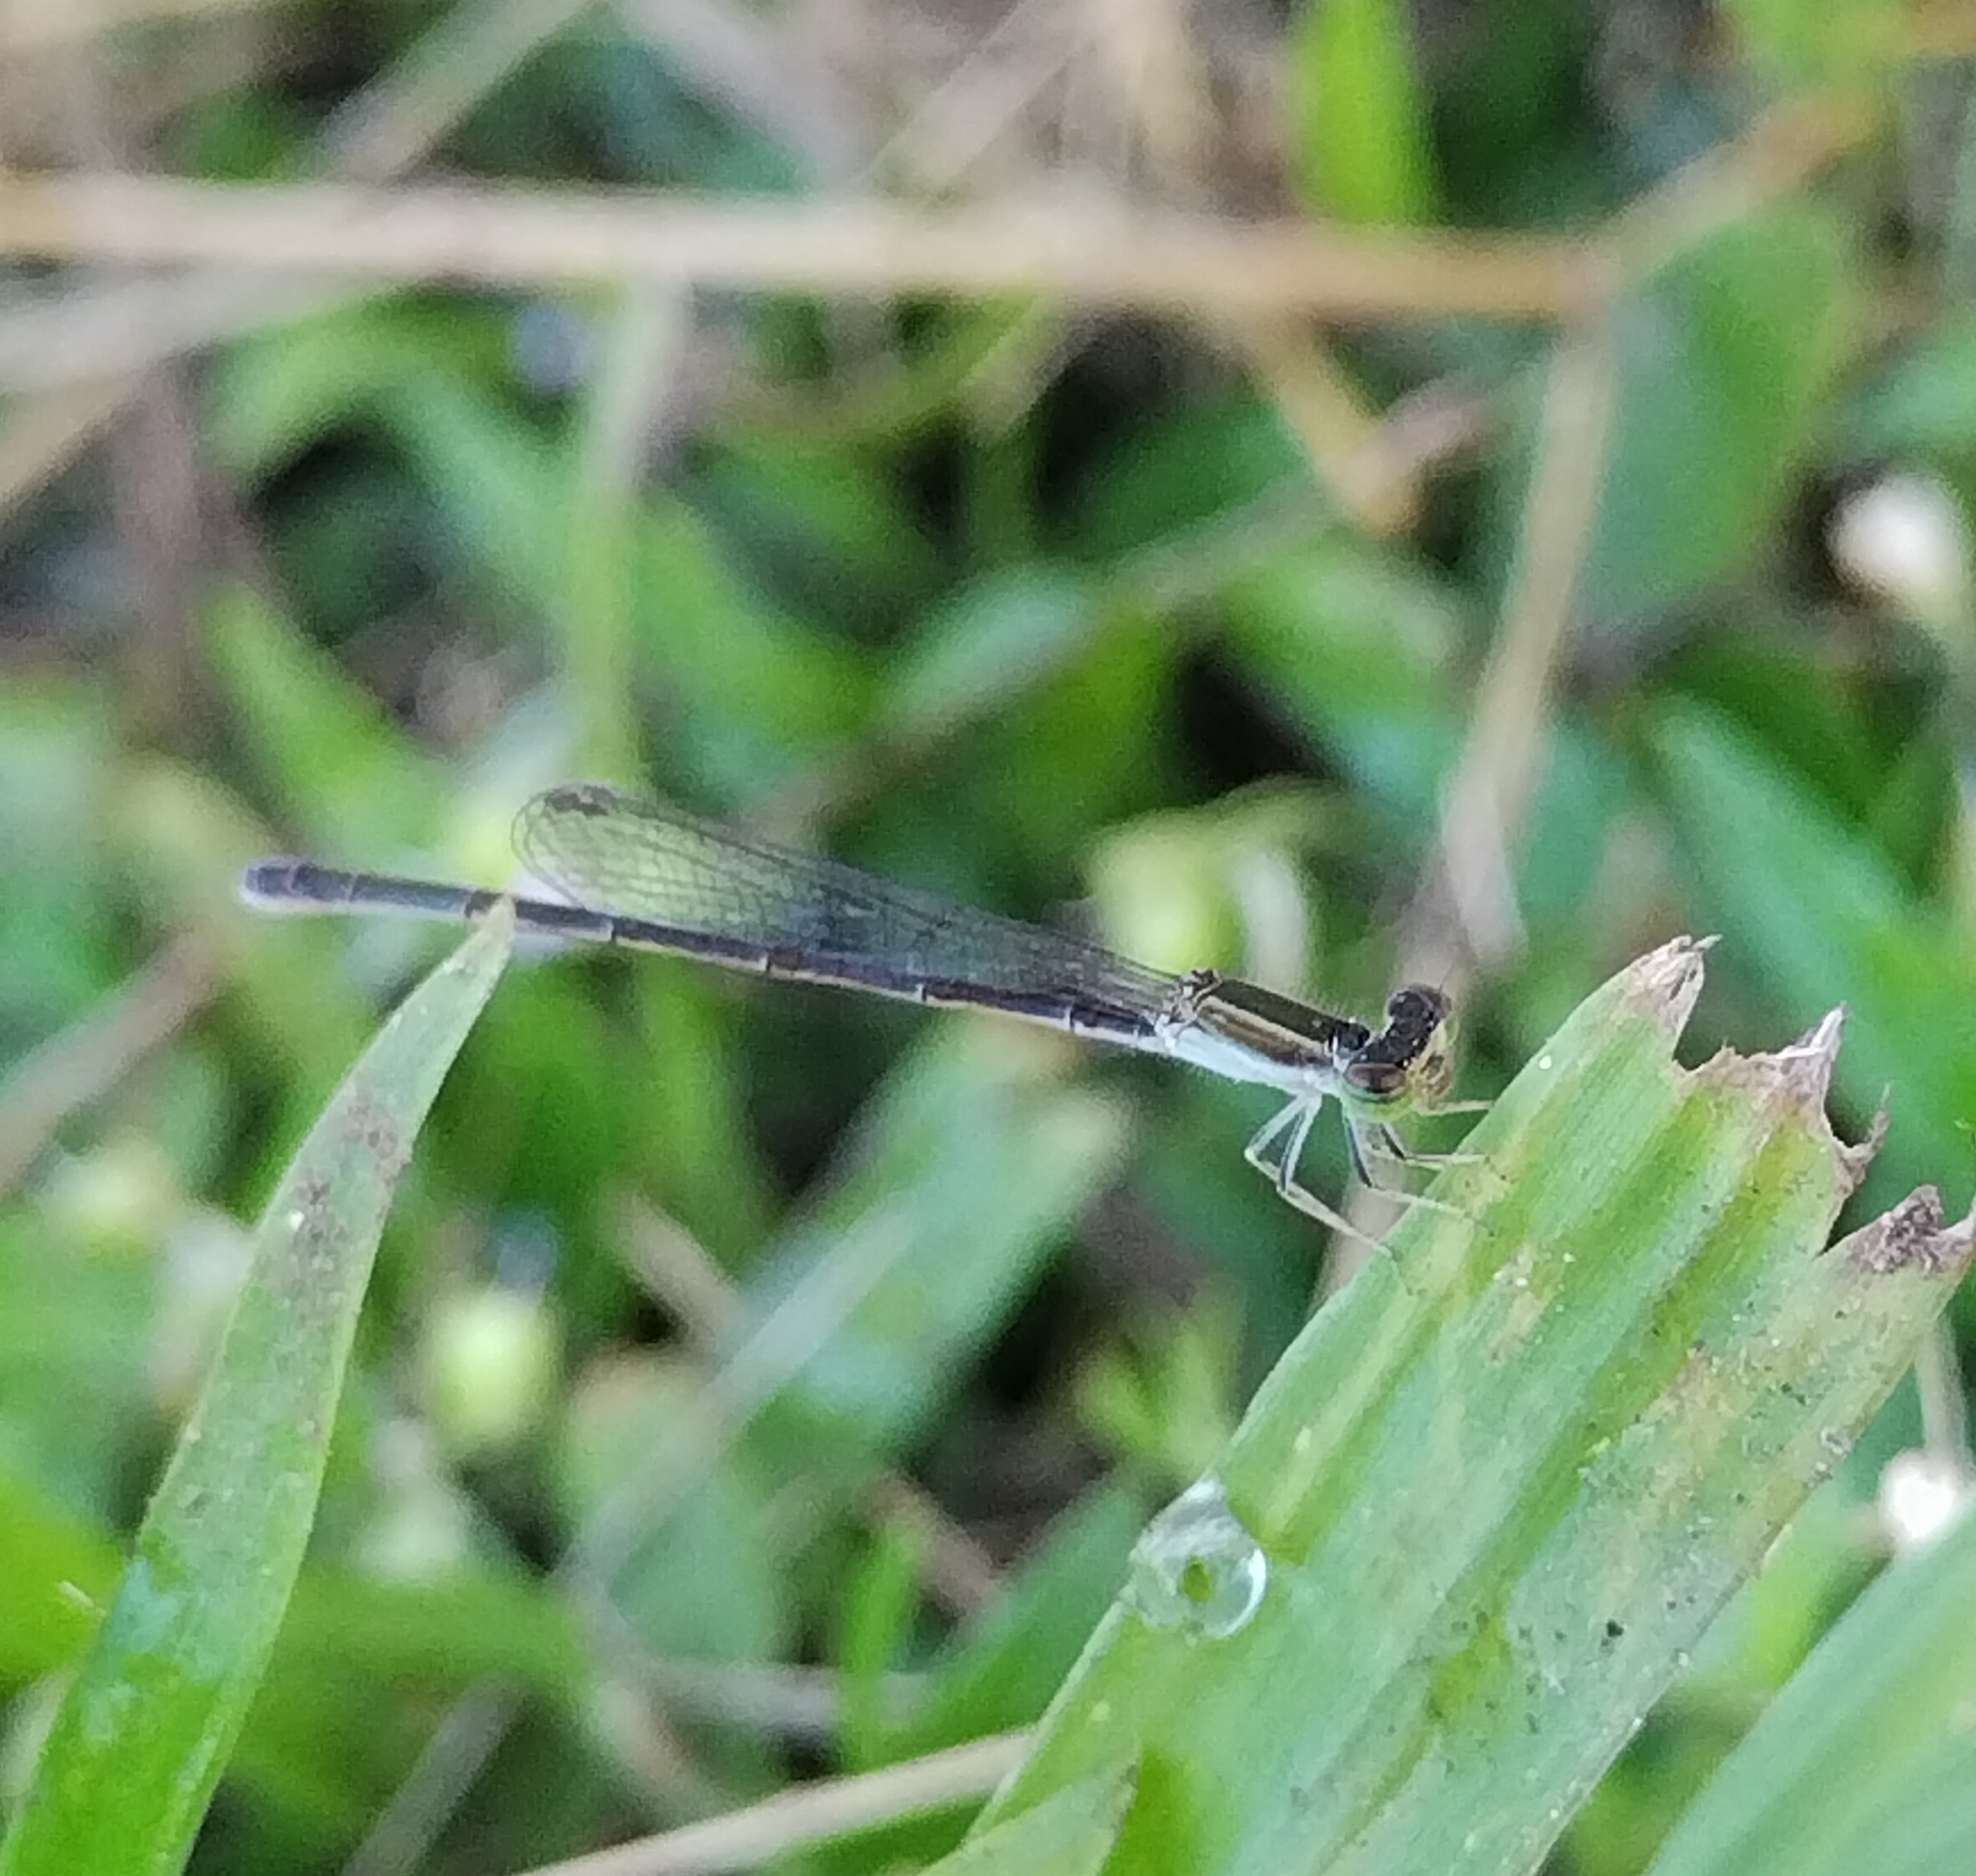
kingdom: Animalia
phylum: Arthropoda
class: Insecta
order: Odonata
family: Coenagrionidae
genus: Ischnura
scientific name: Ischnura hastata
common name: Citrine forktail
